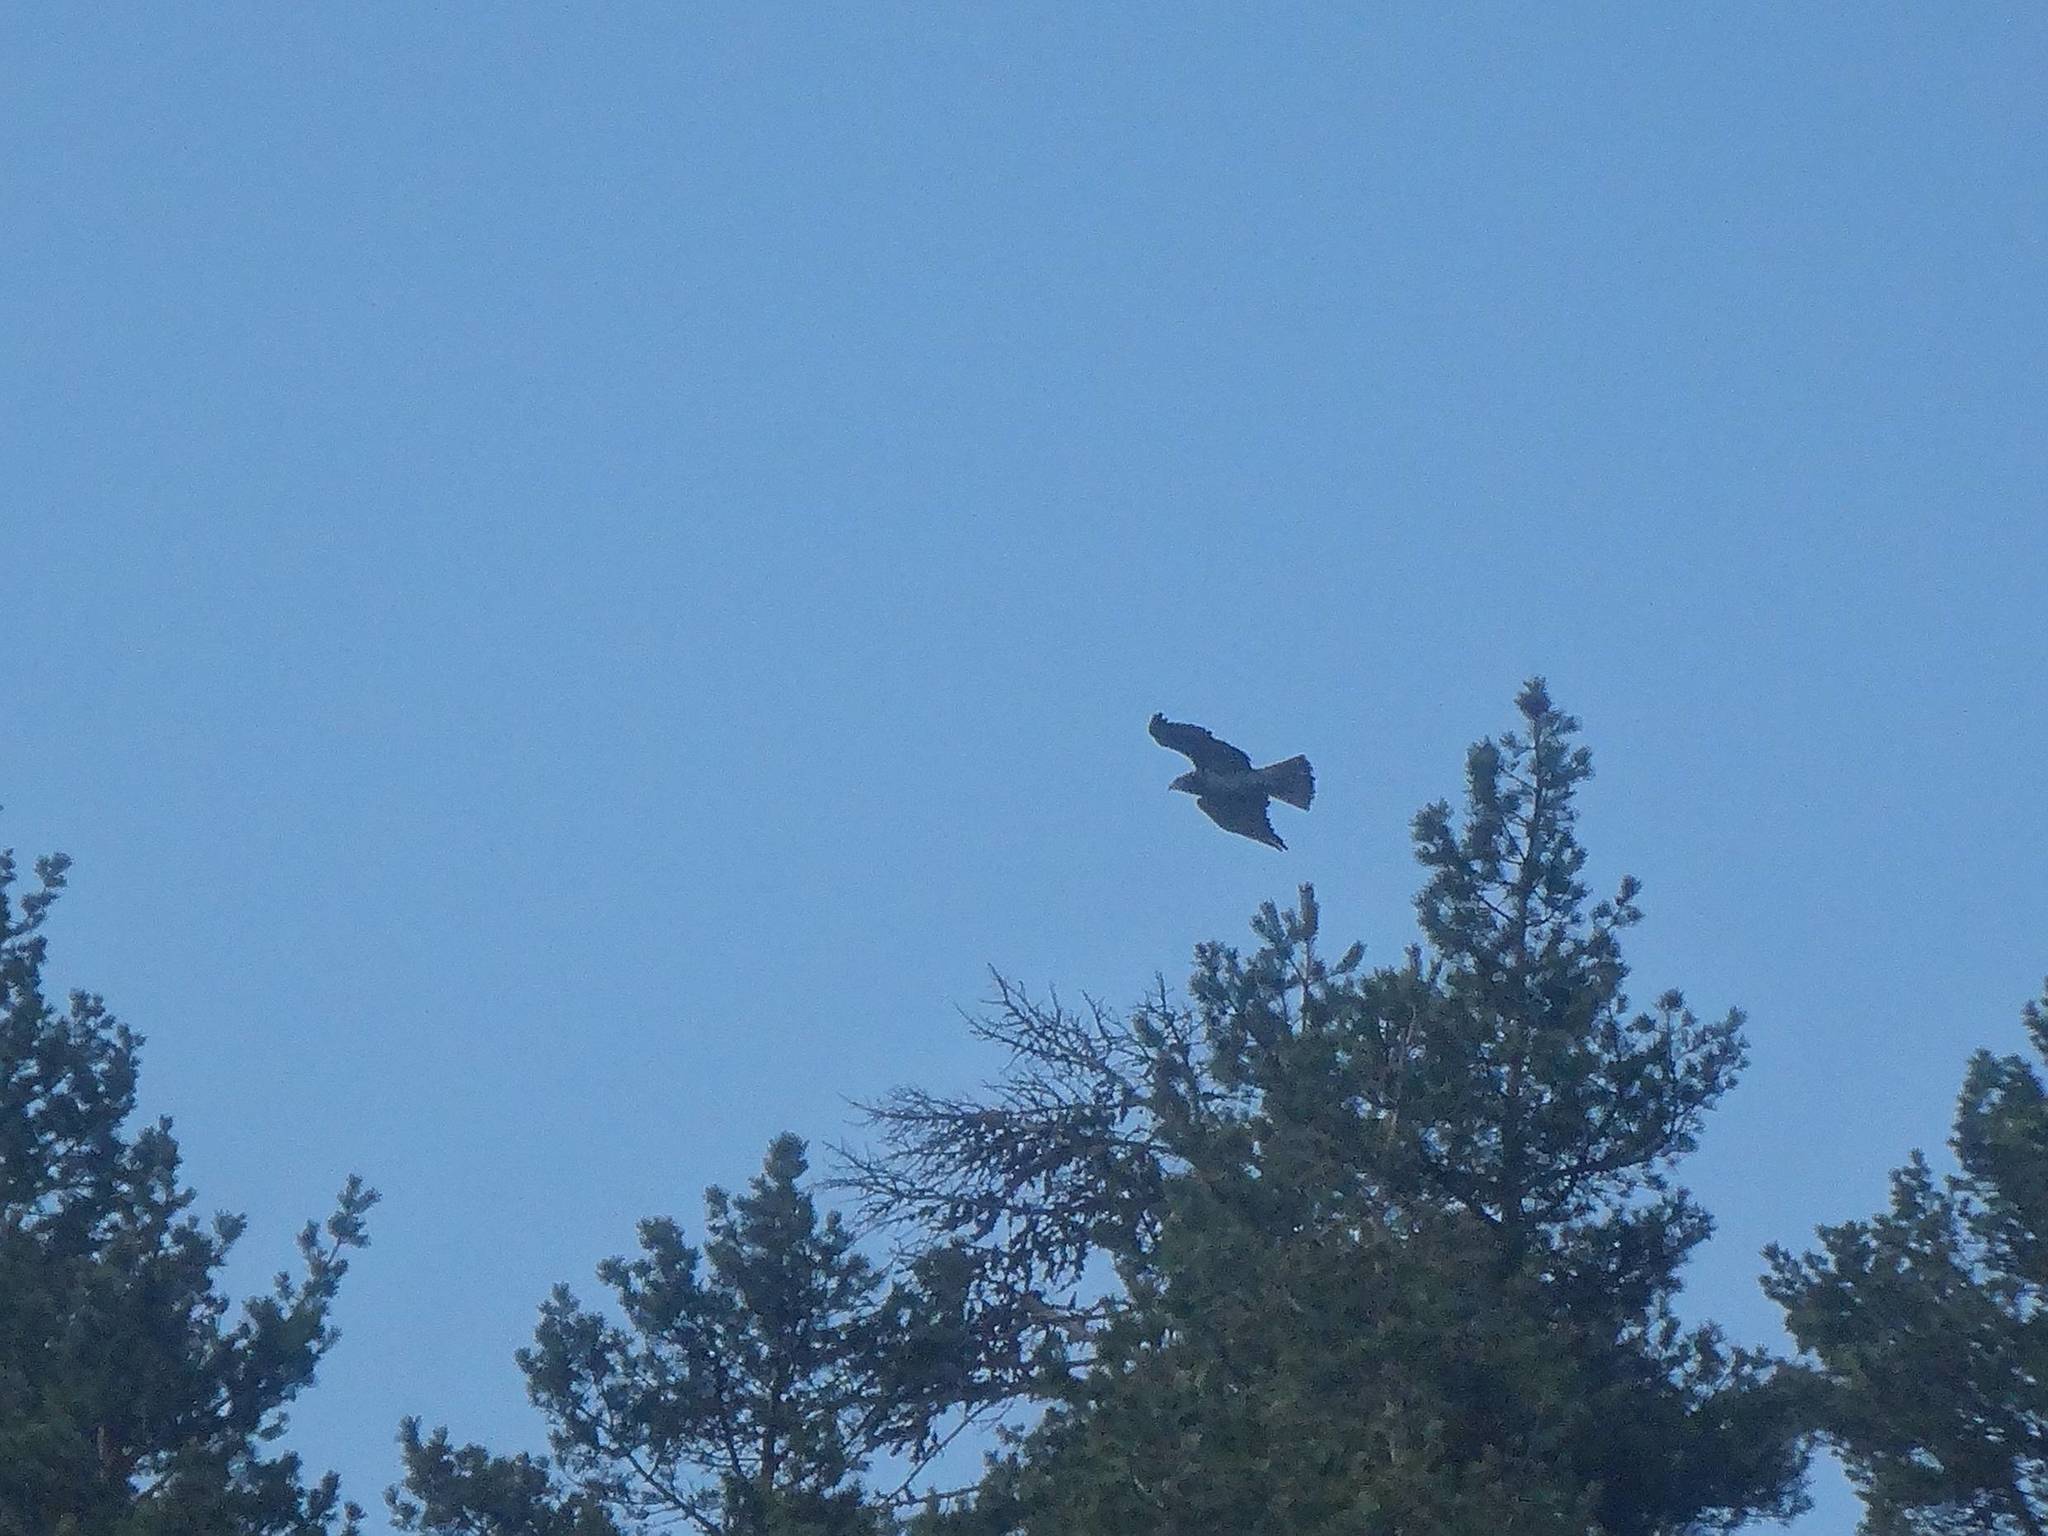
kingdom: Animalia
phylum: Chordata
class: Aves
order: Accipitriformes
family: Accipitridae
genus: Circaetus
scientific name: Circaetus gallicus
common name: Short-toed snake eagle
